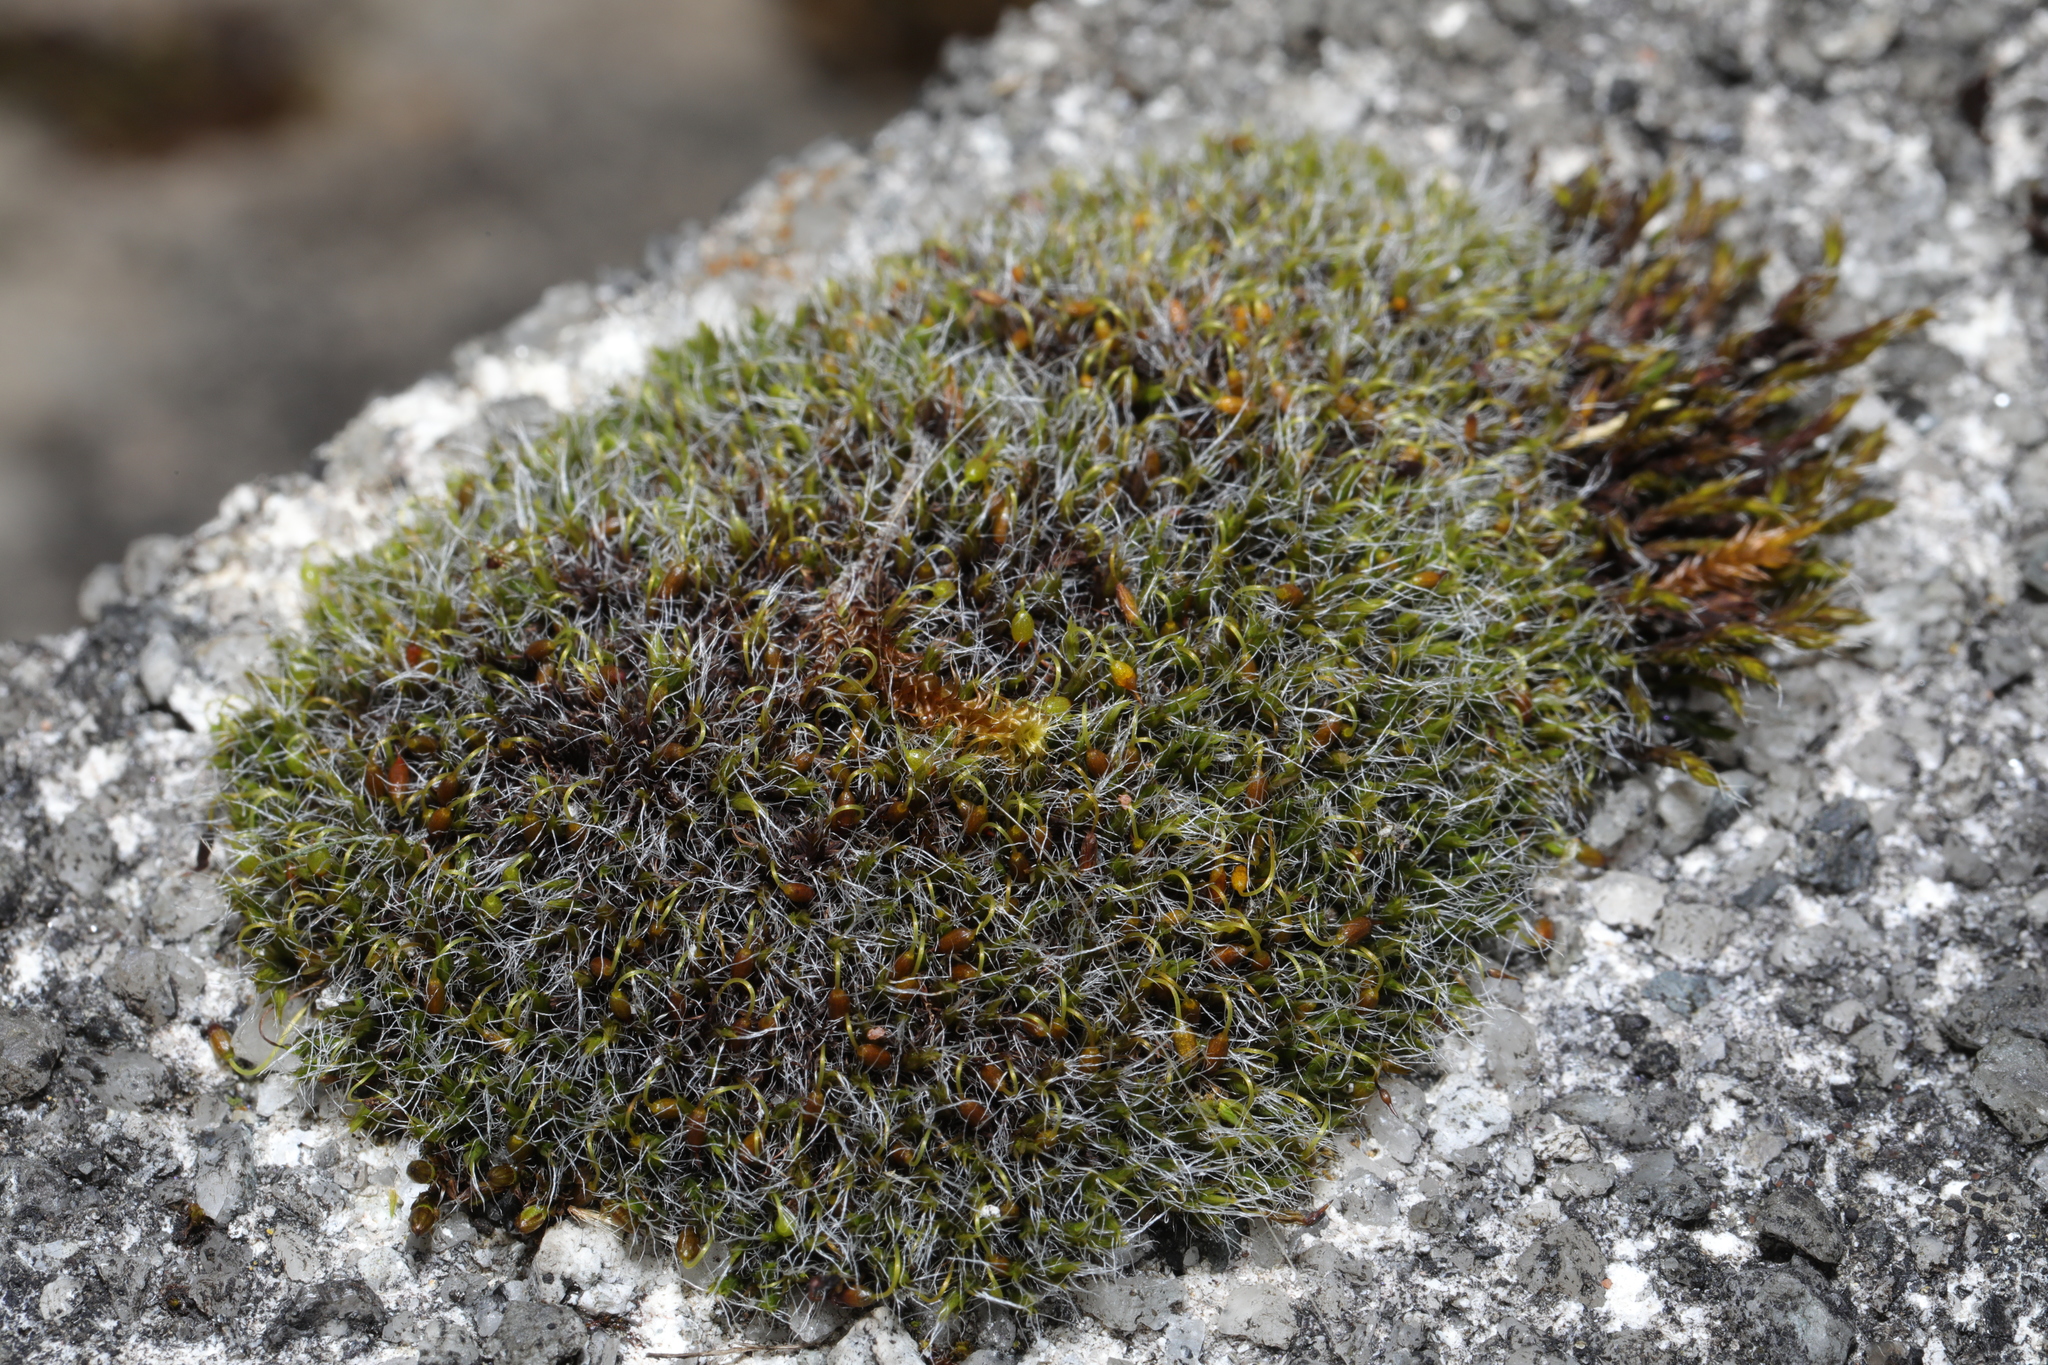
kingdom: Plantae
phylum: Bryophyta
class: Bryopsida
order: Grimmiales
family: Grimmiaceae
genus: Grimmia
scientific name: Grimmia pulvinata
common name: Grey-cushioned grimmia
